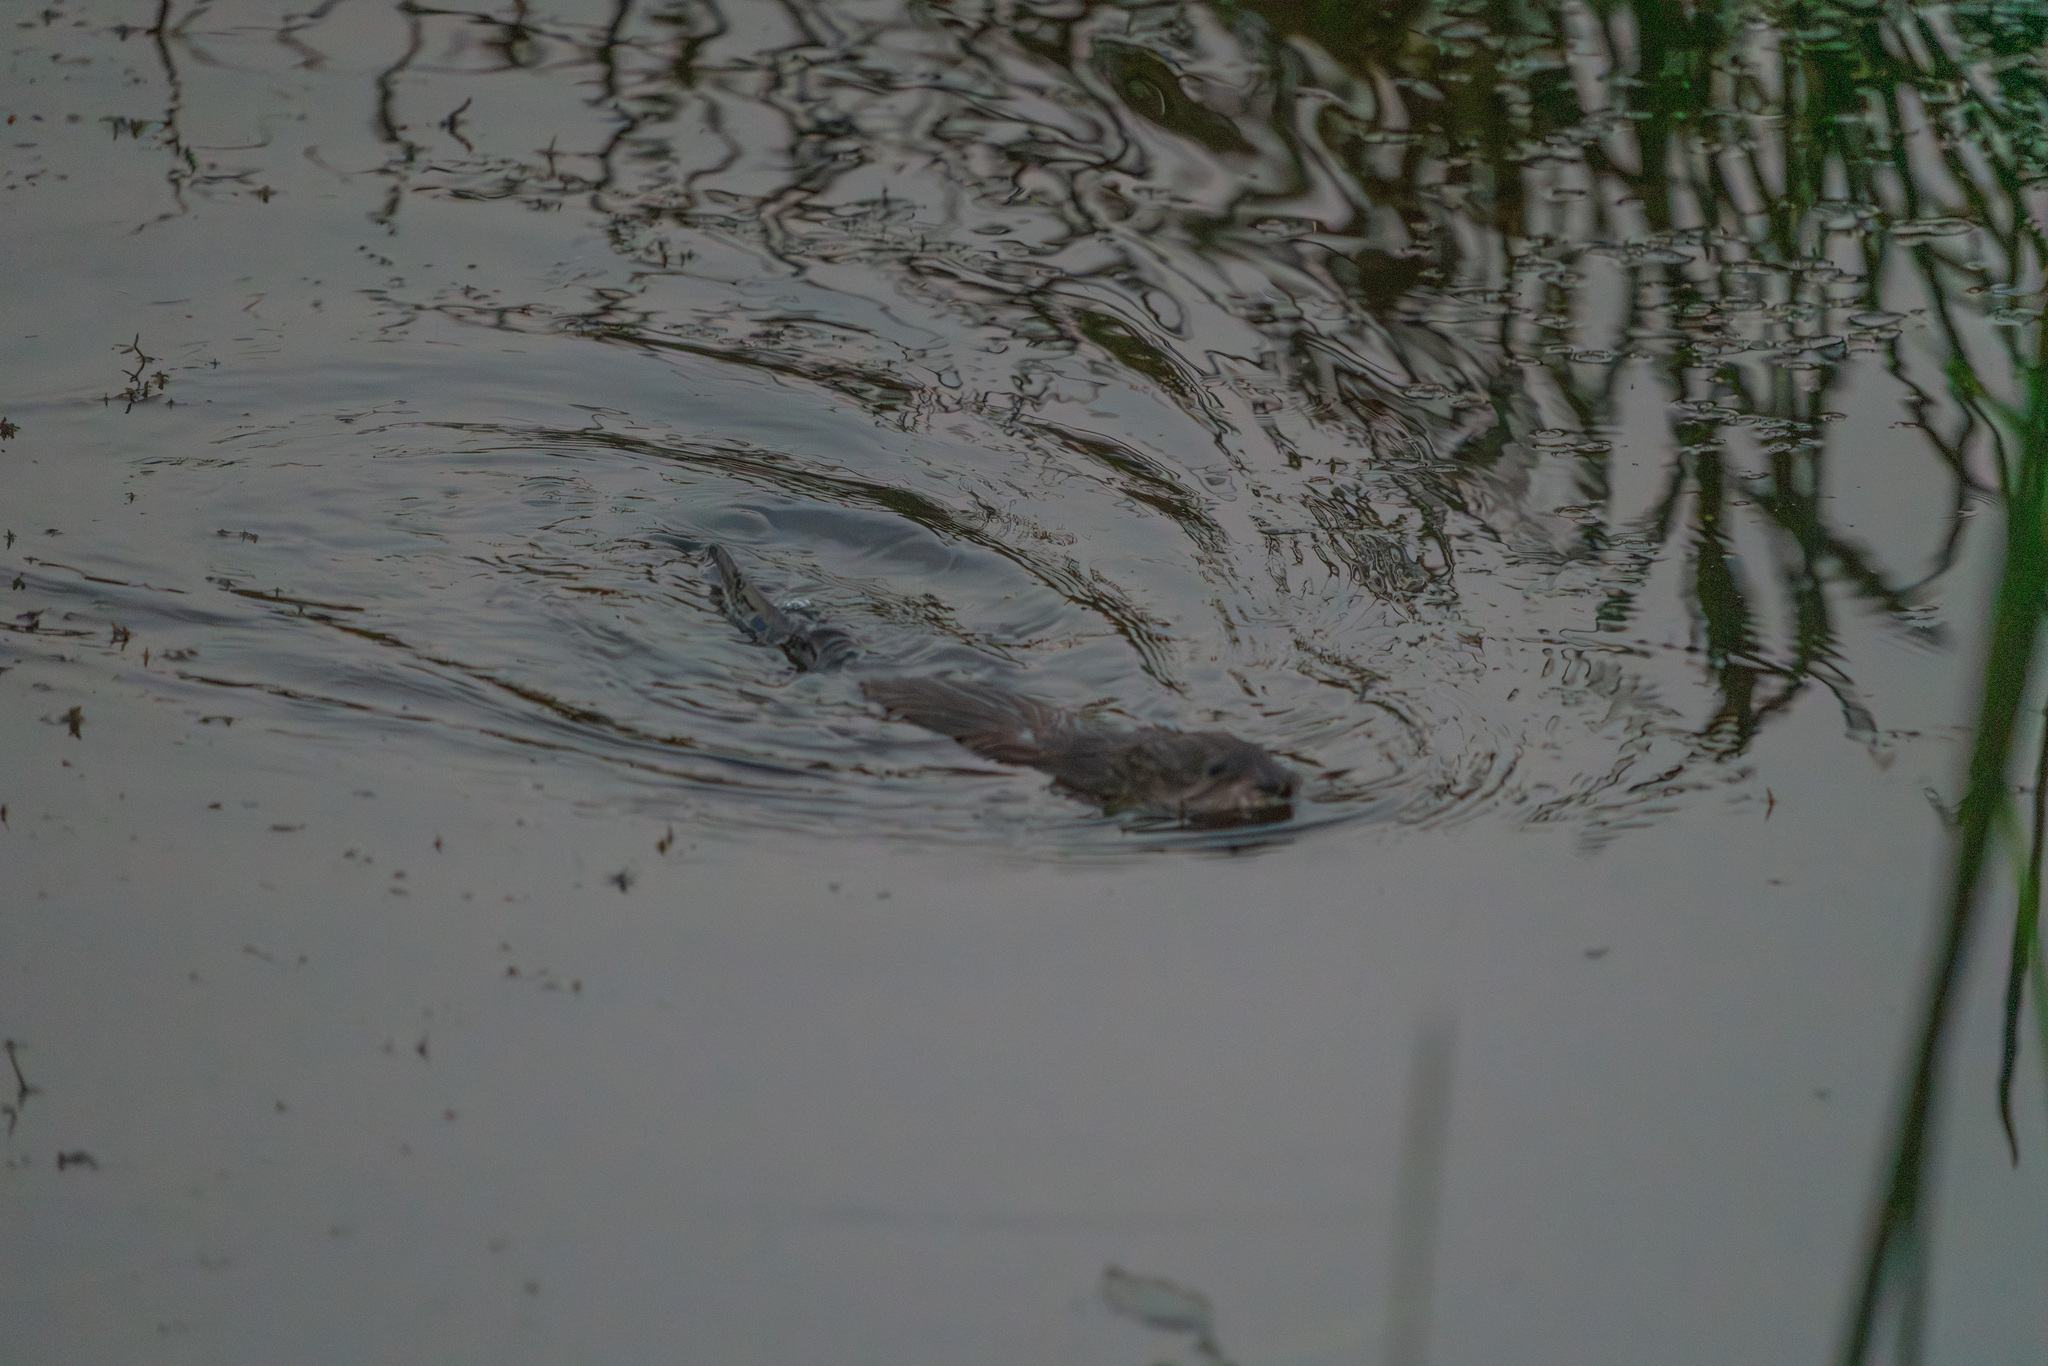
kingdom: Animalia
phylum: Chordata
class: Mammalia
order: Rodentia
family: Cricetidae
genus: Ondatra
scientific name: Ondatra zibethicus
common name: Muskrat
